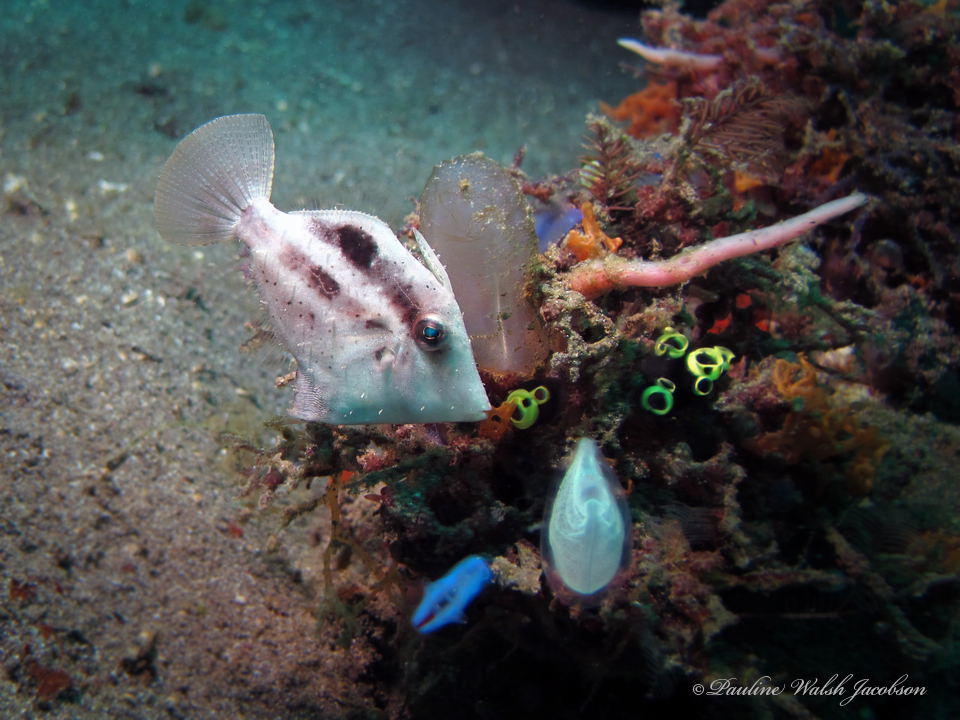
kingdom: Animalia
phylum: Chordata
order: Tetraodontiformes
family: Monacanthidae
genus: Paramonacanthus
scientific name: Paramonacanthus curtorhynchos
